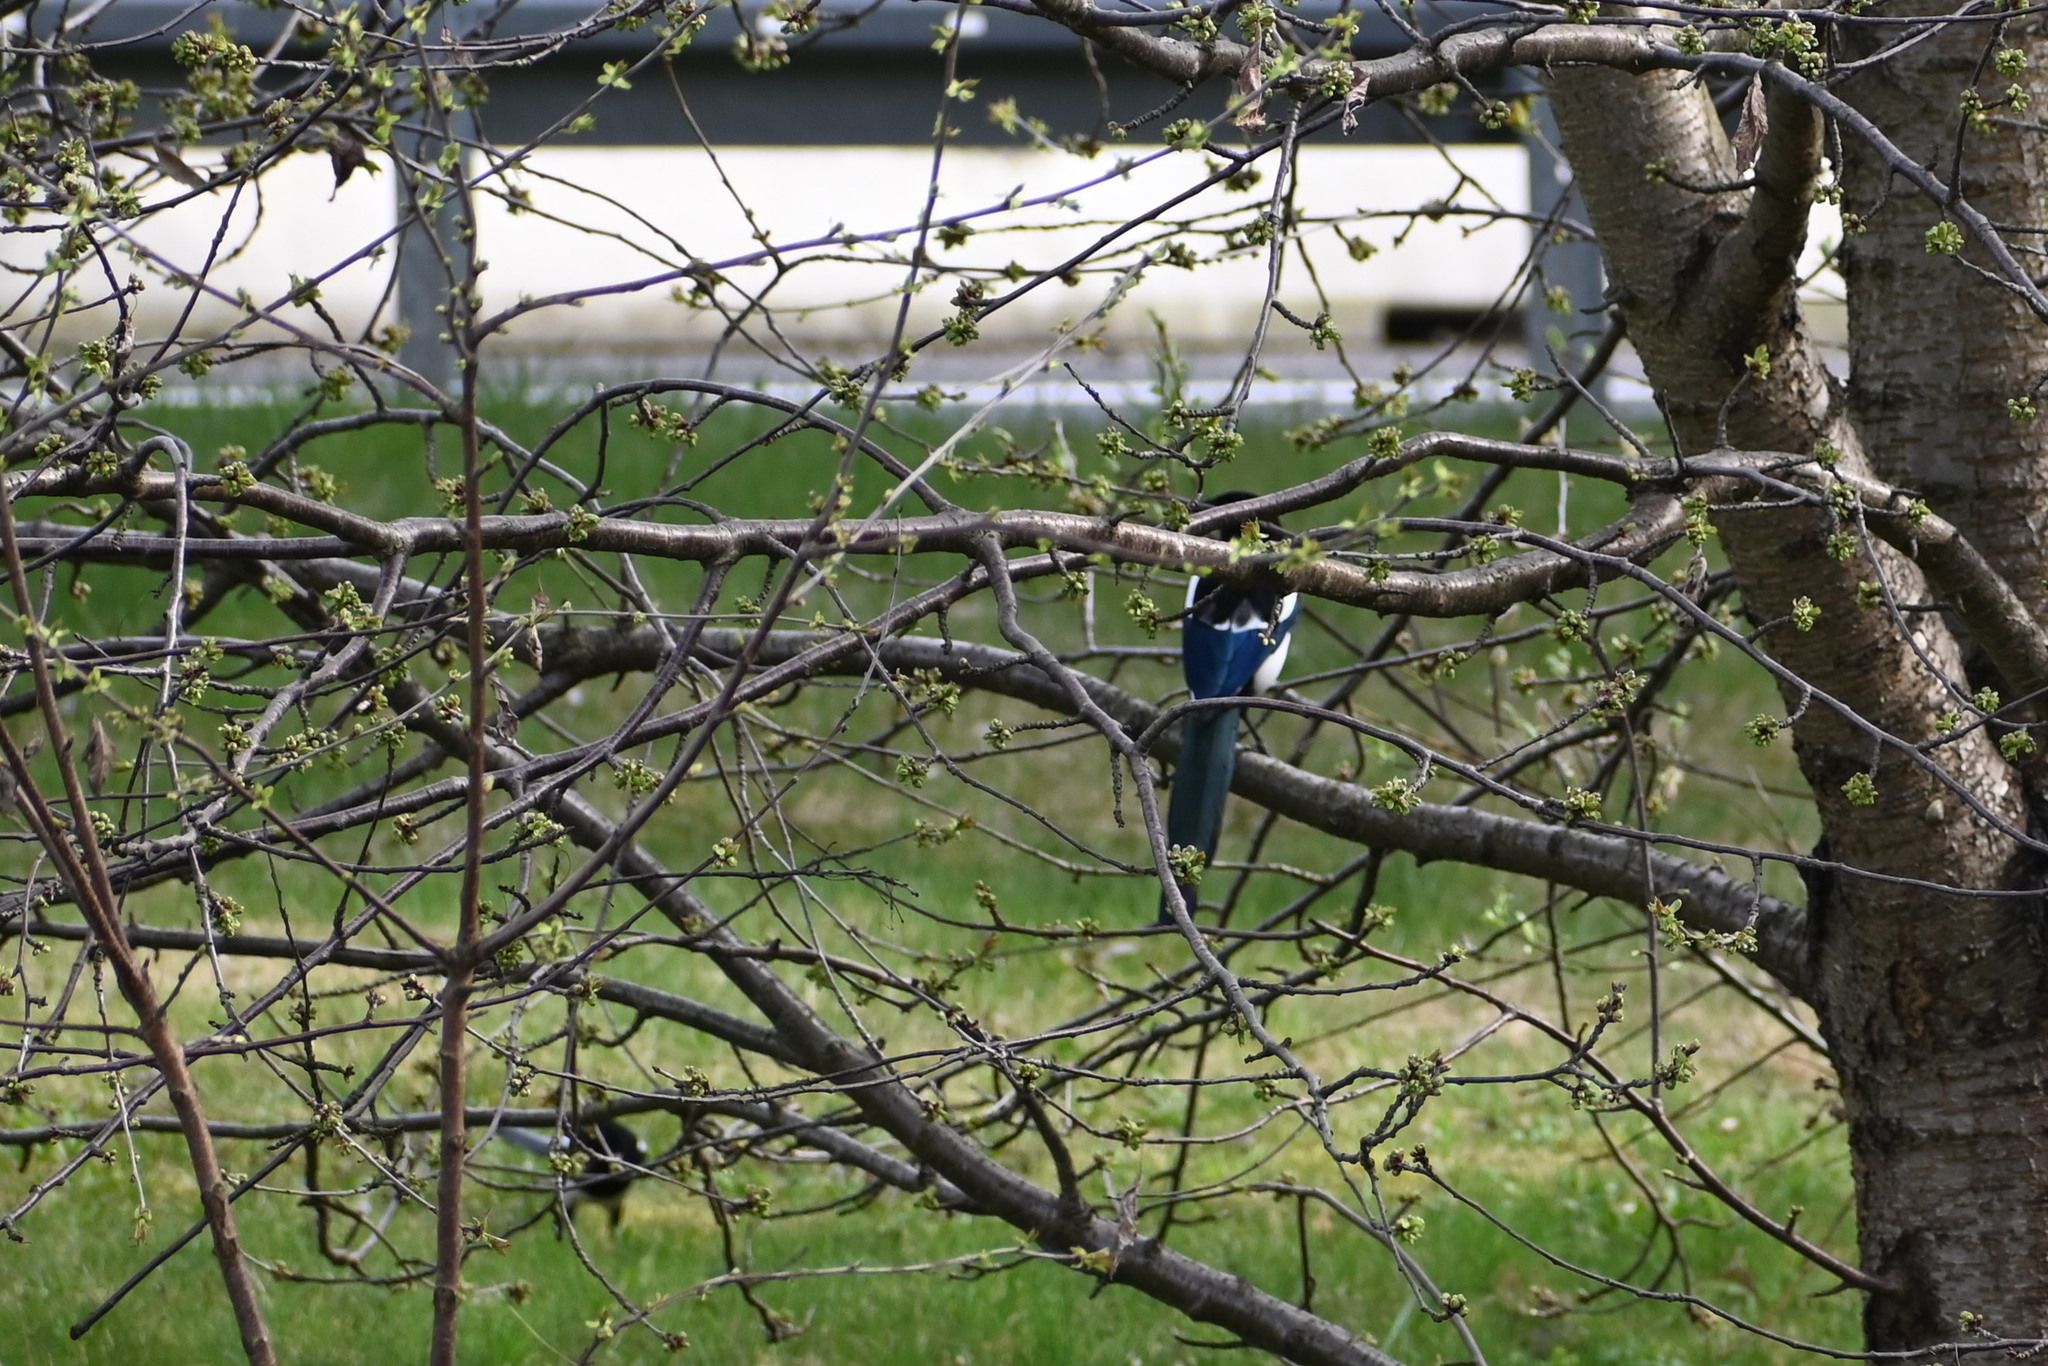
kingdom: Animalia
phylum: Chordata
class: Aves
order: Passeriformes
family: Corvidae
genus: Pica
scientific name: Pica pica
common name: Eurasian magpie
